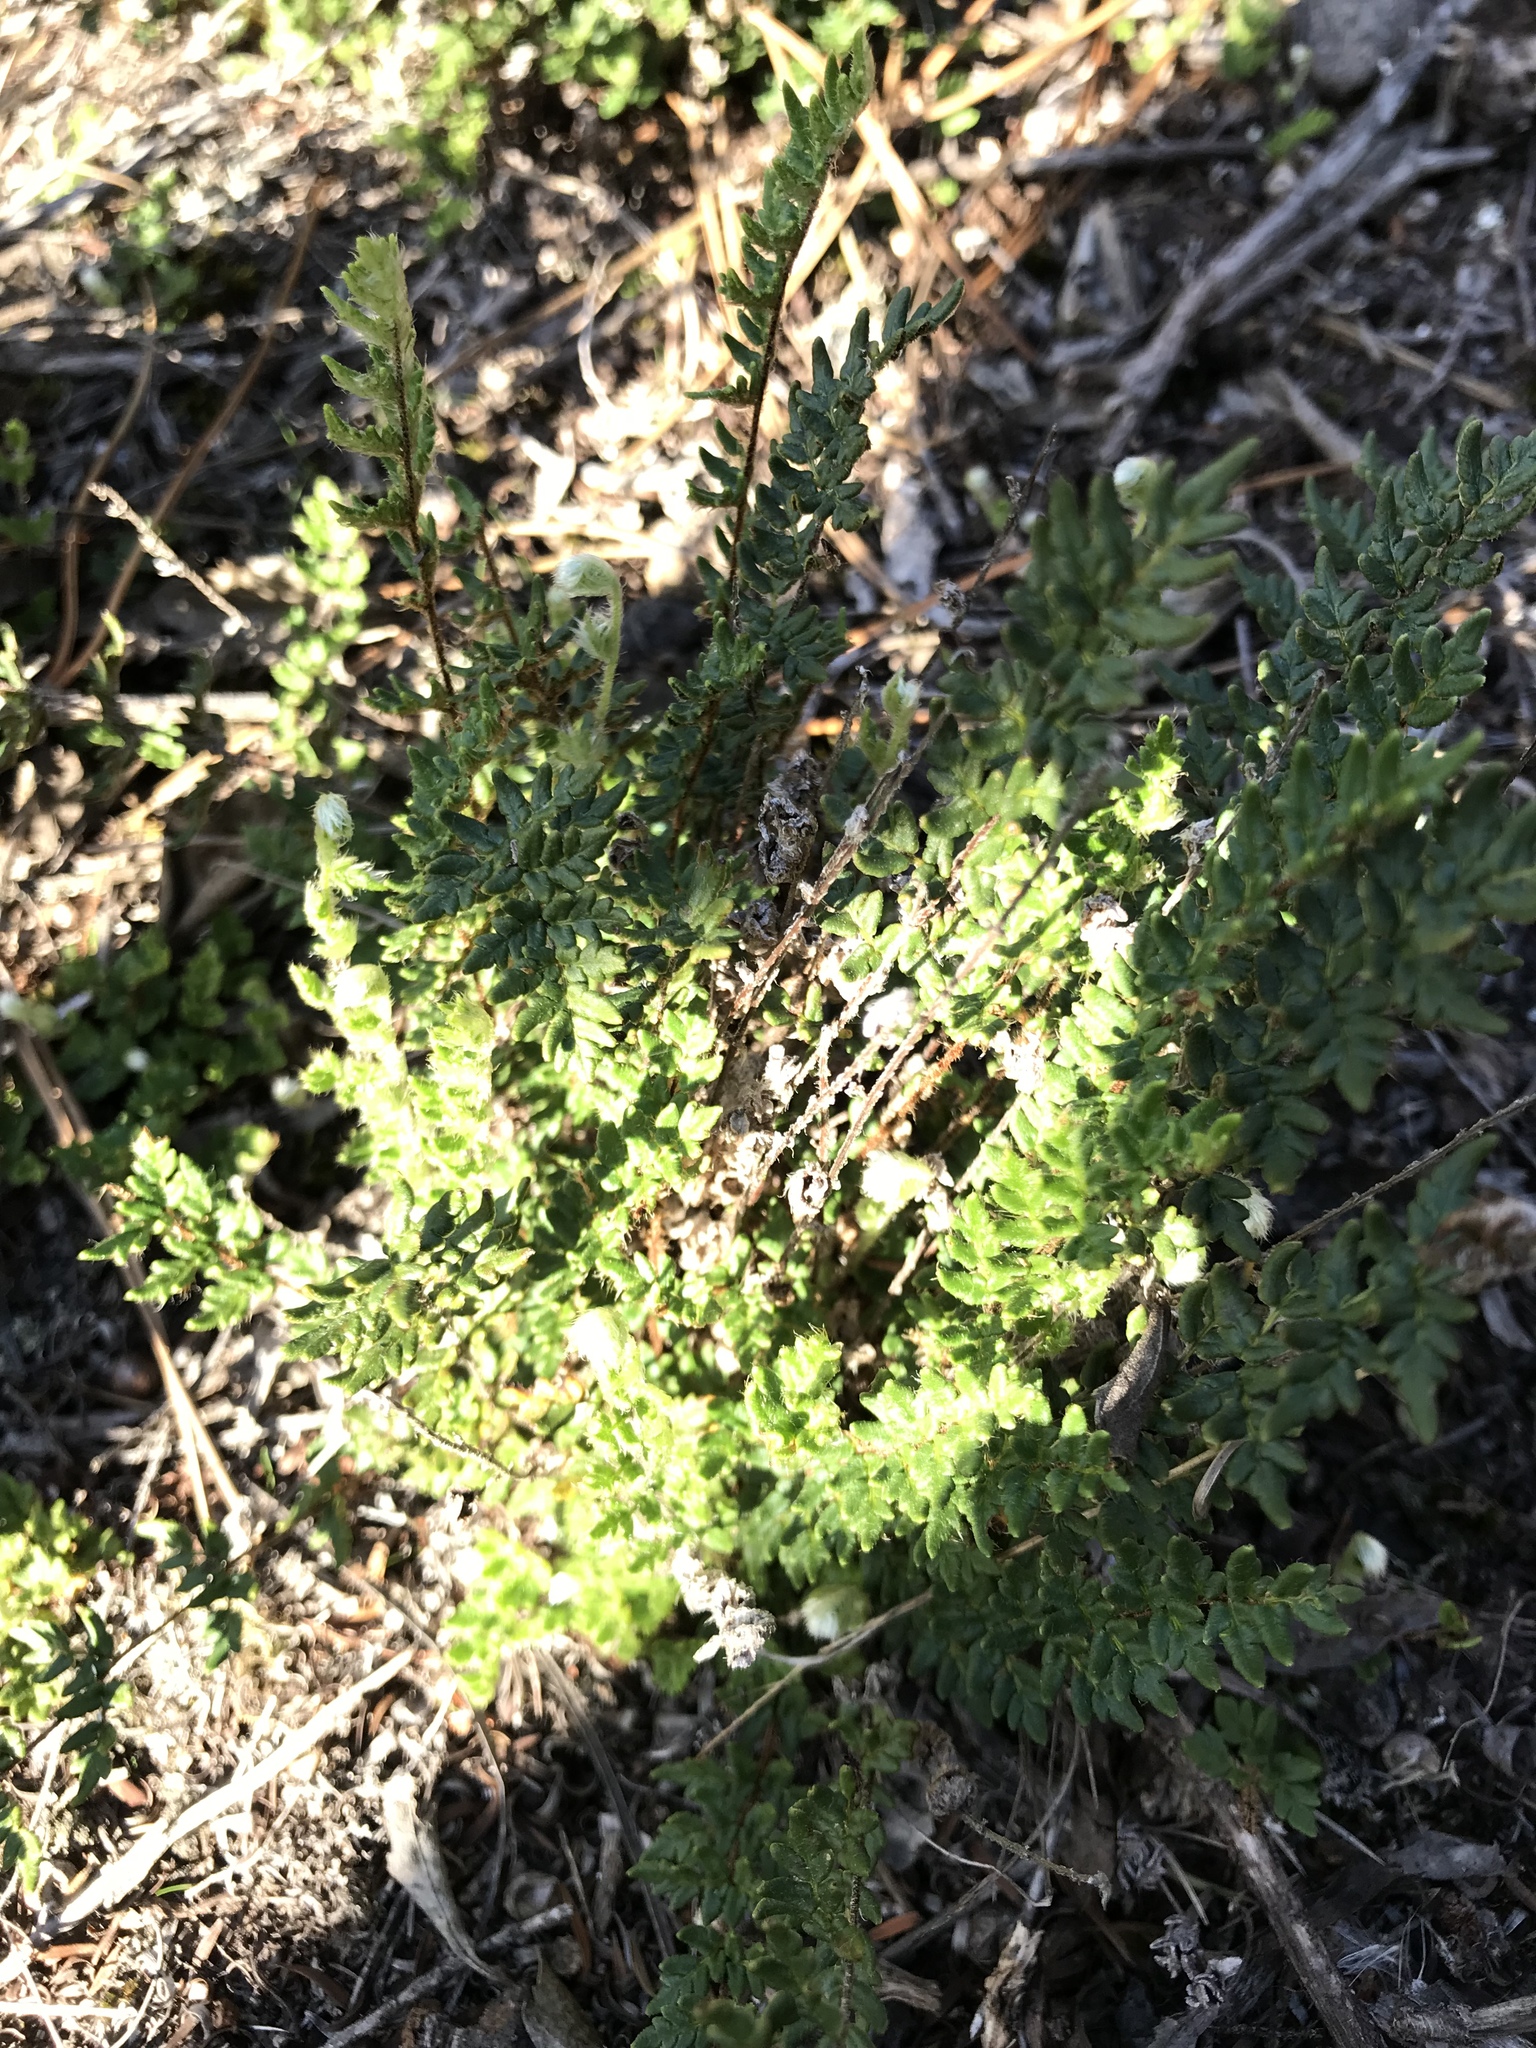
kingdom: Plantae
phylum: Tracheophyta
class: Polypodiopsida
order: Polypodiales
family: Pteridaceae
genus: Cheilanthes
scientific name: Cheilanthes distans
